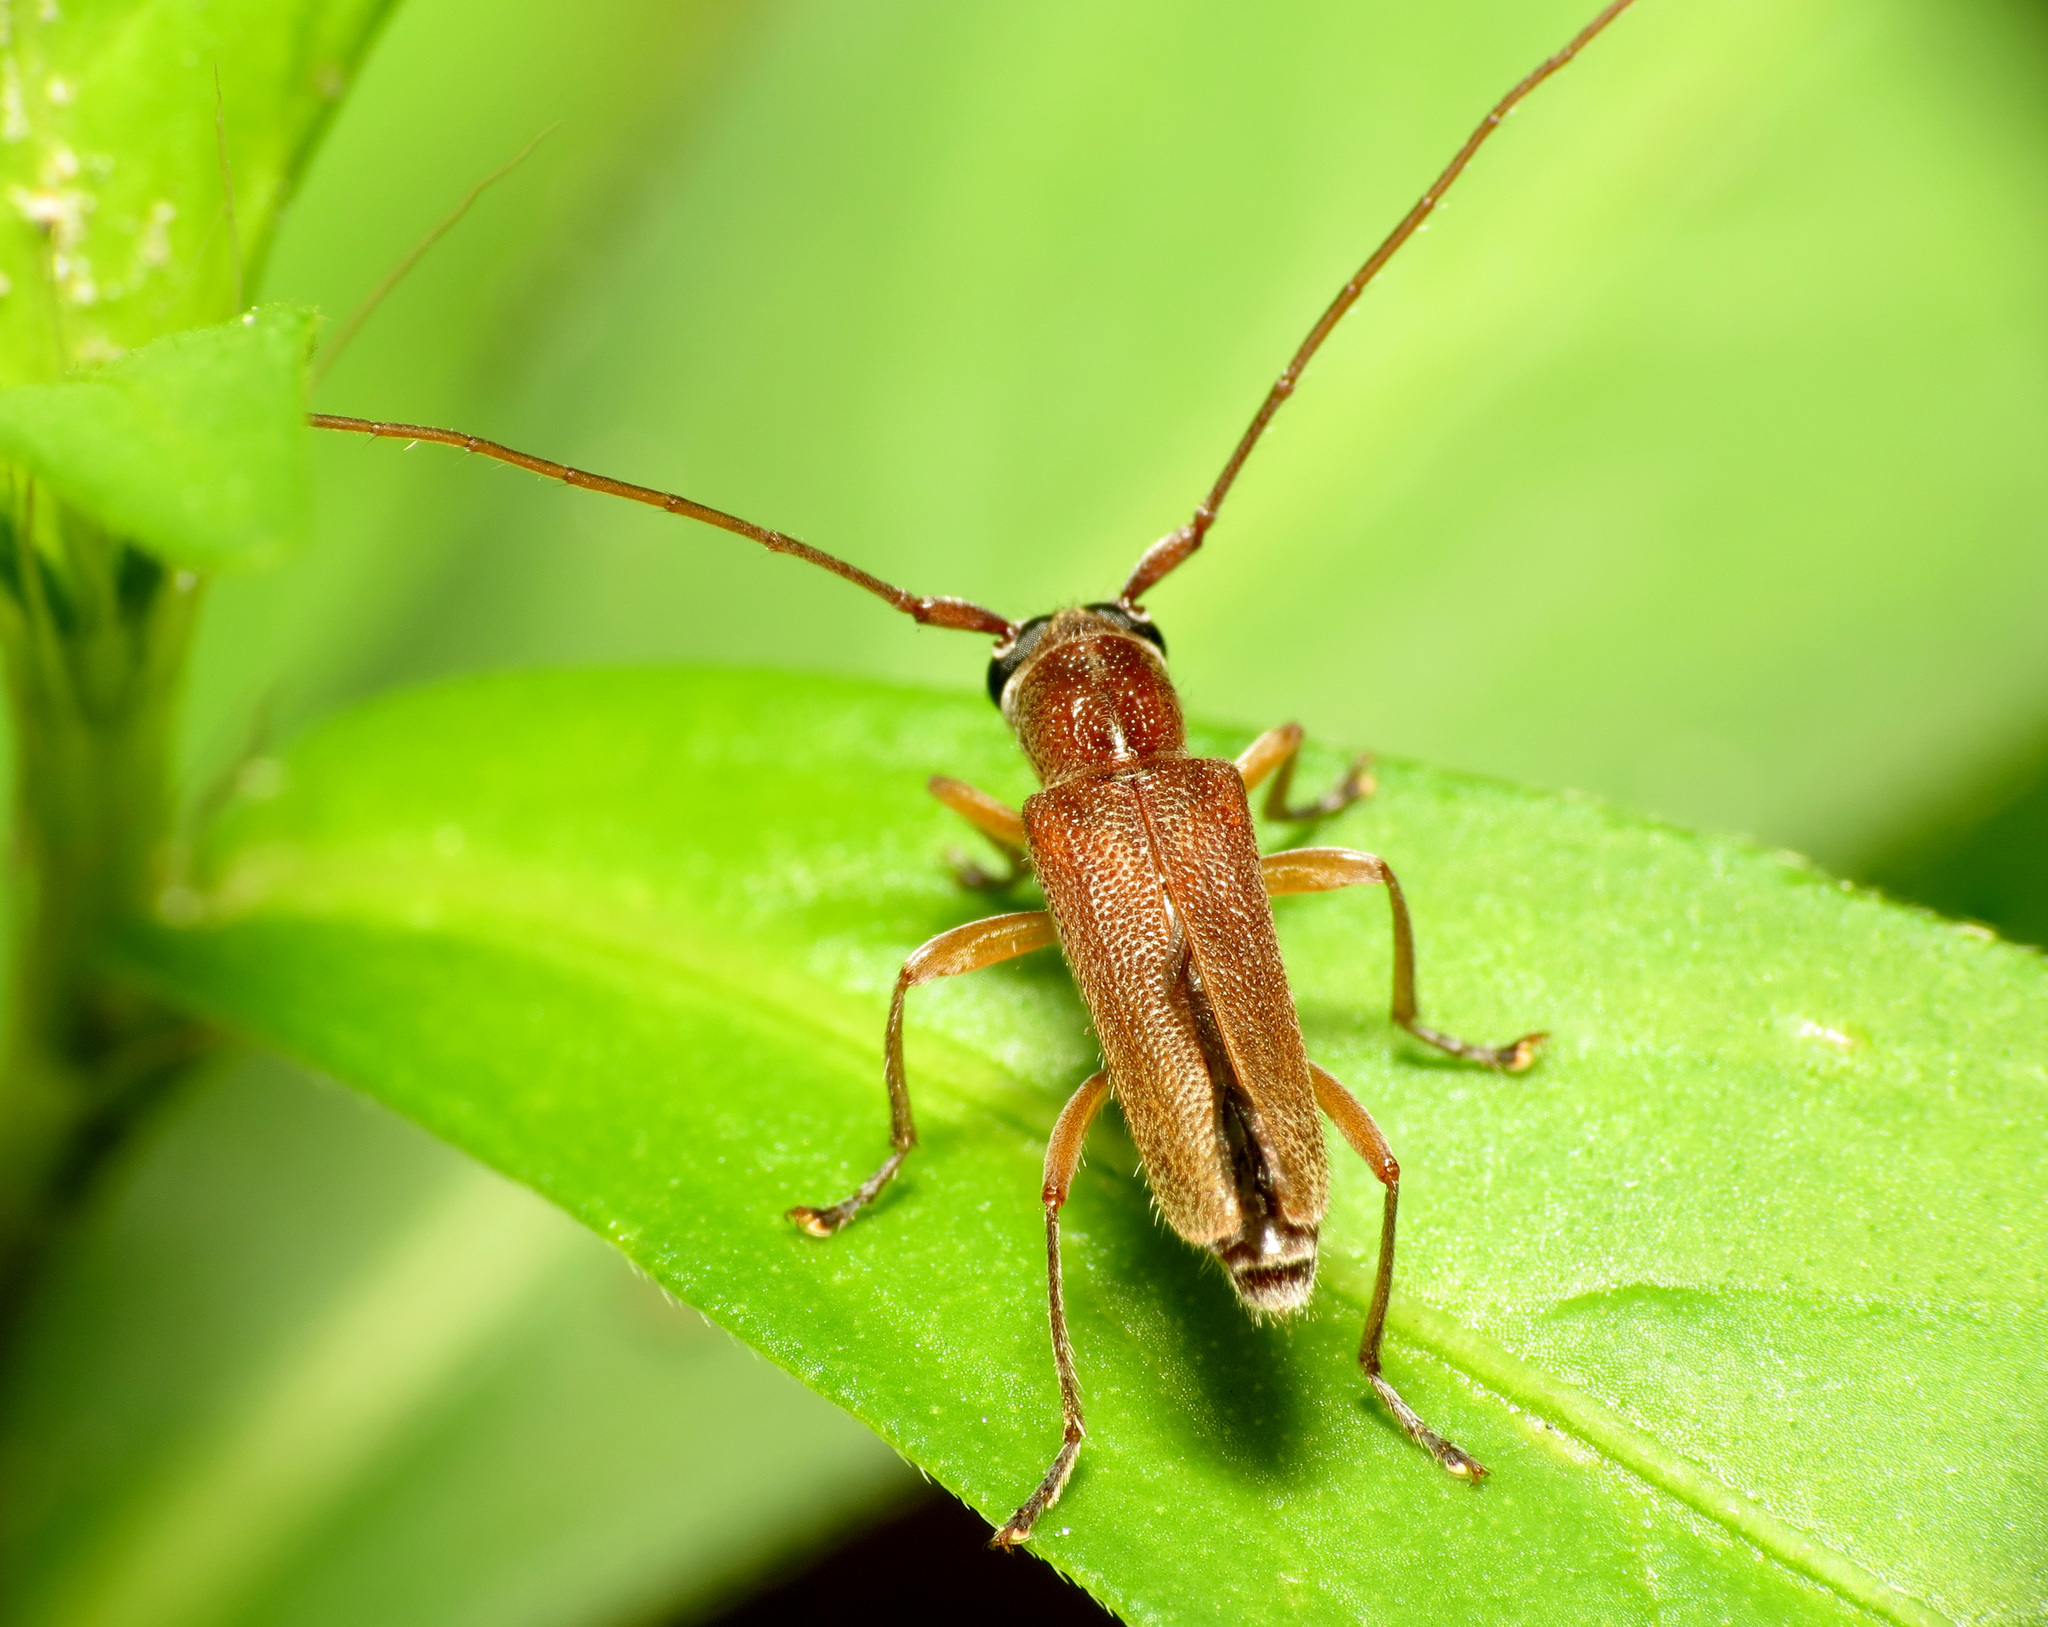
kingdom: Animalia
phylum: Arthropoda
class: Insecta
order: Coleoptera
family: Cerambycidae
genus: Saperda
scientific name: Saperda discoidea
